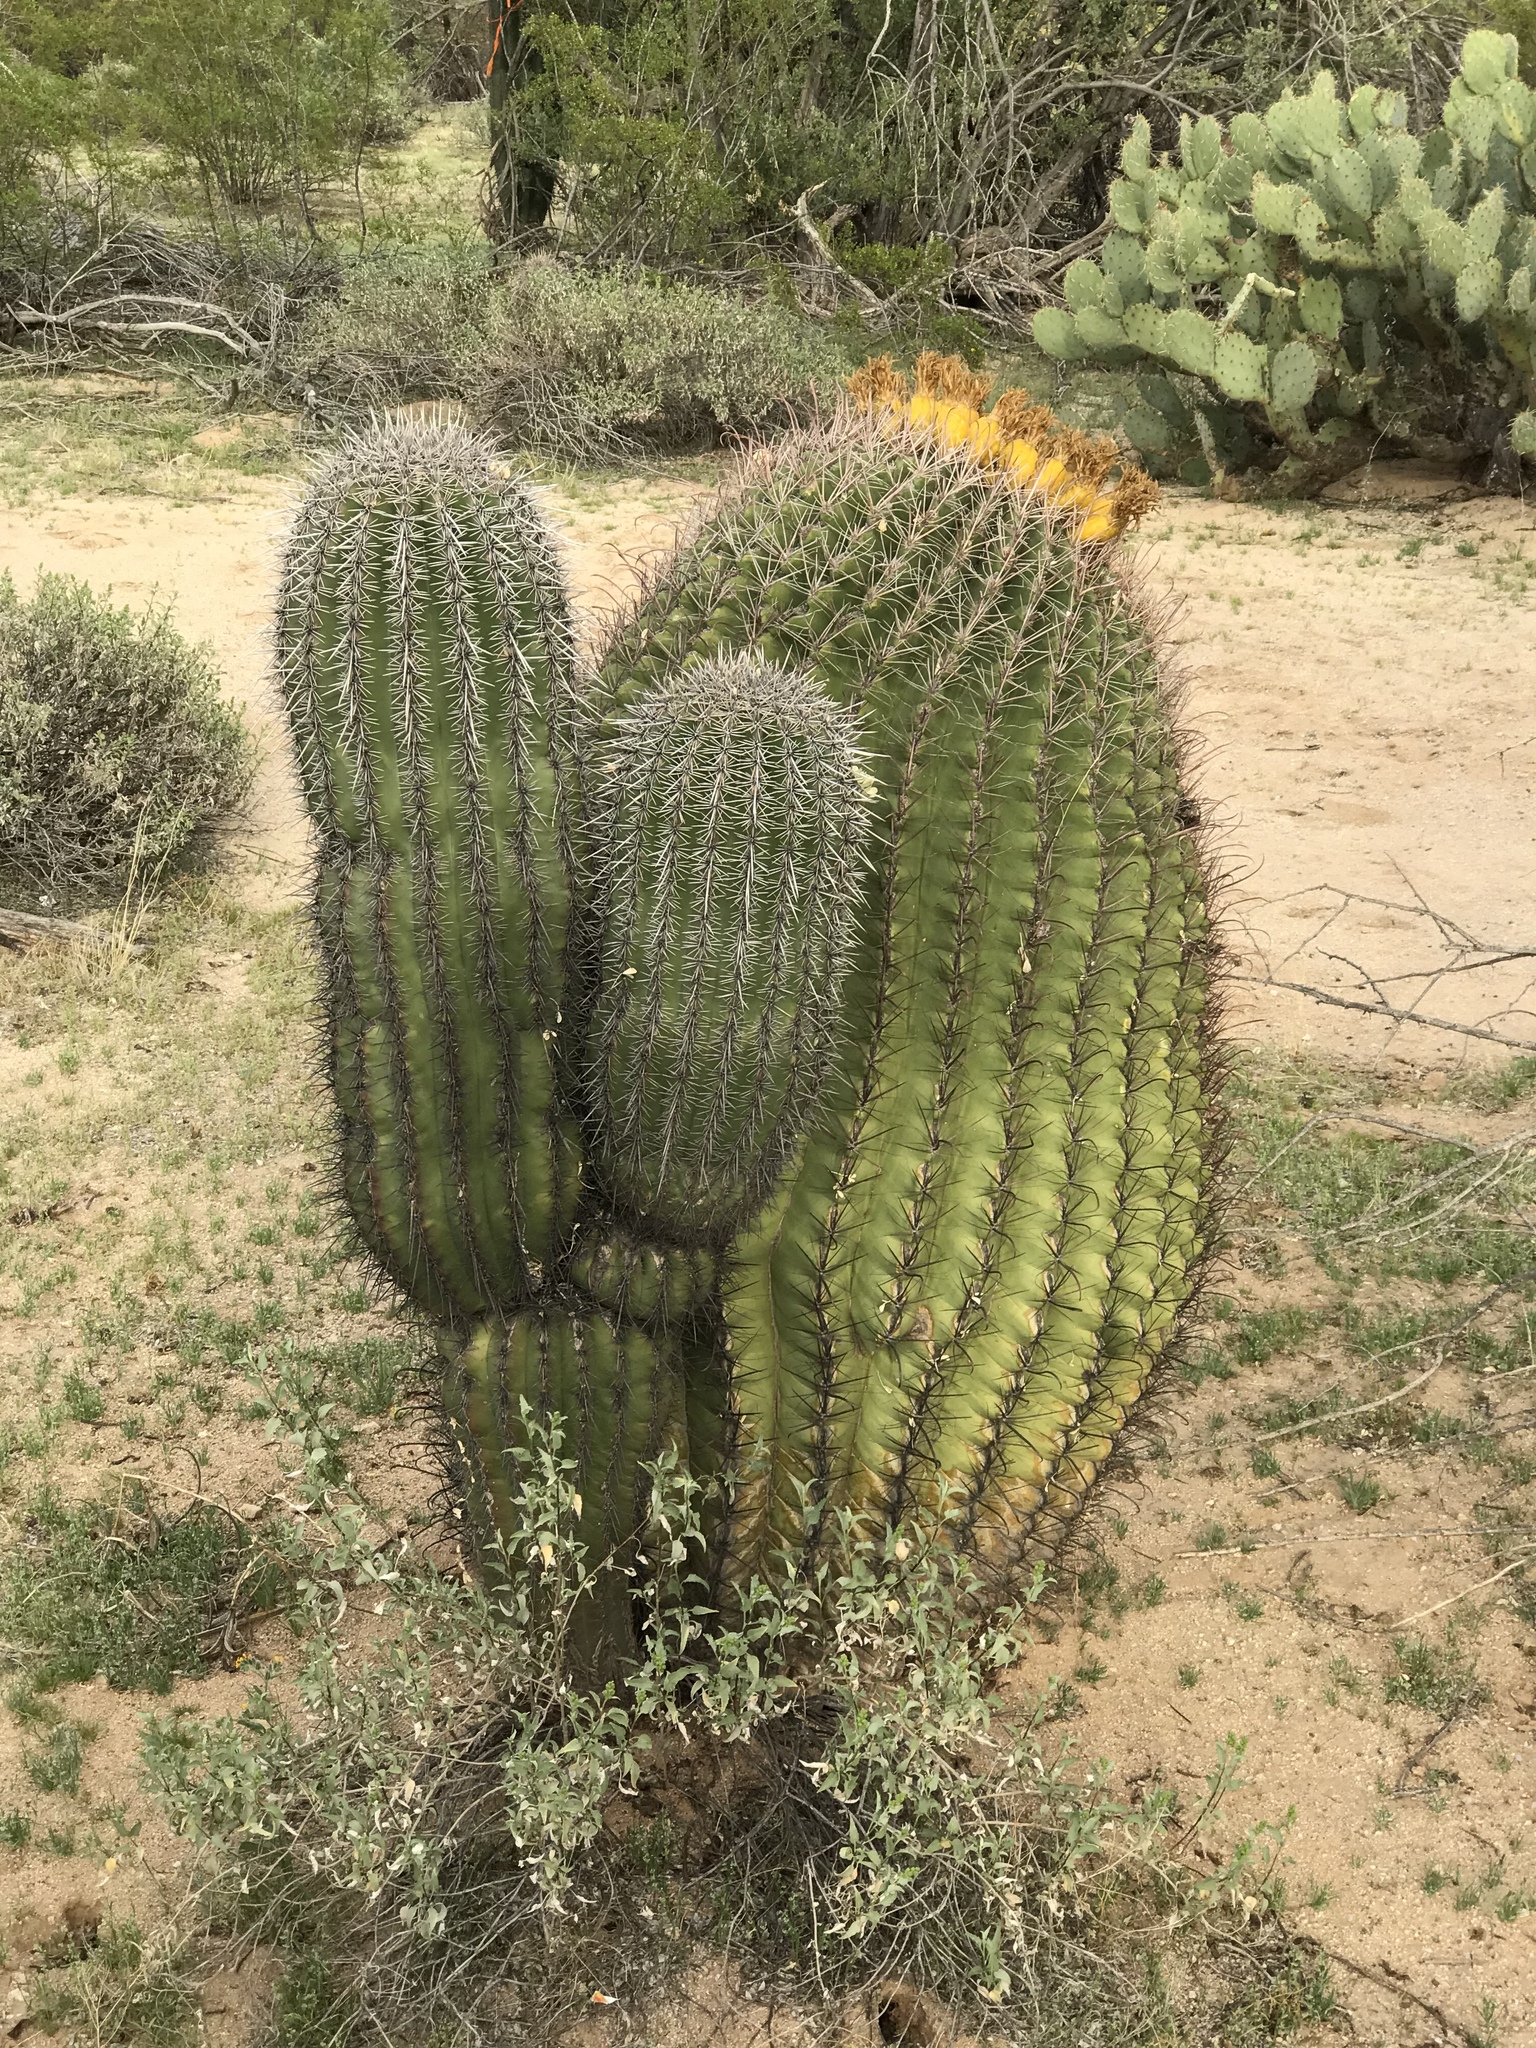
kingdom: Plantae
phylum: Tracheophyta
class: Magnoliopsida
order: Caryophyllales
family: Cactaceae
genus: Carnegiea
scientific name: Carnegiea gigantea
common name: Saguaro
